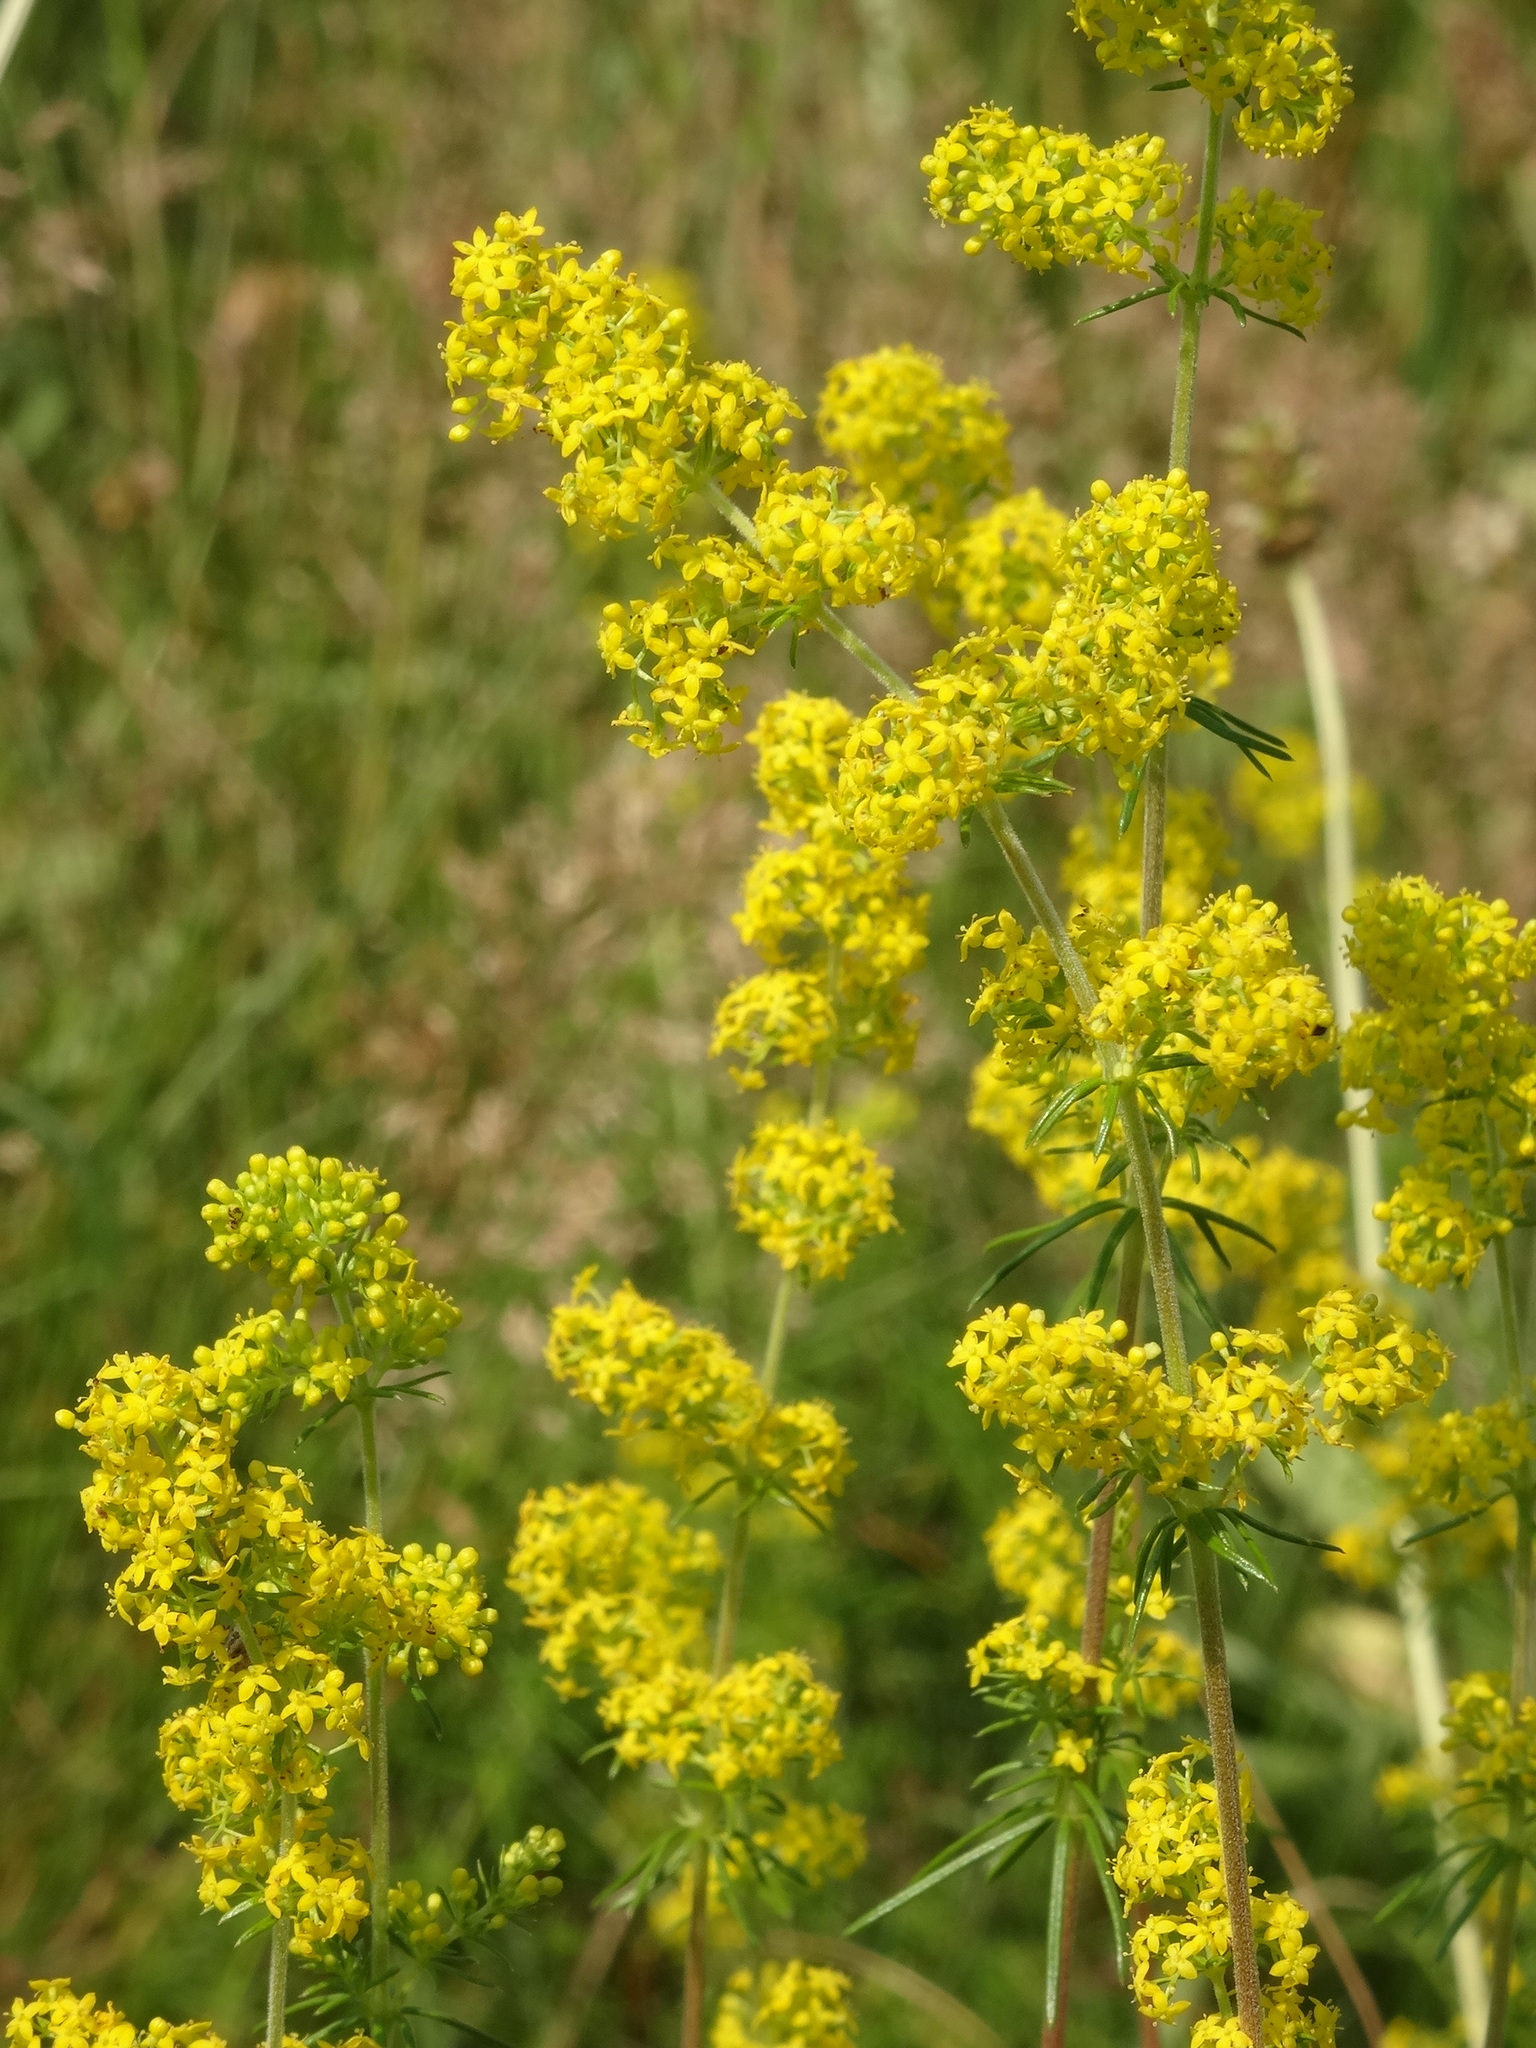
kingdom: Plantae
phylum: Tracheophyta
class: Magnoliopsida
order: Gentianales
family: Rubiaceae
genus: Galium
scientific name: Galium verum
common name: Lady's bedstraw
